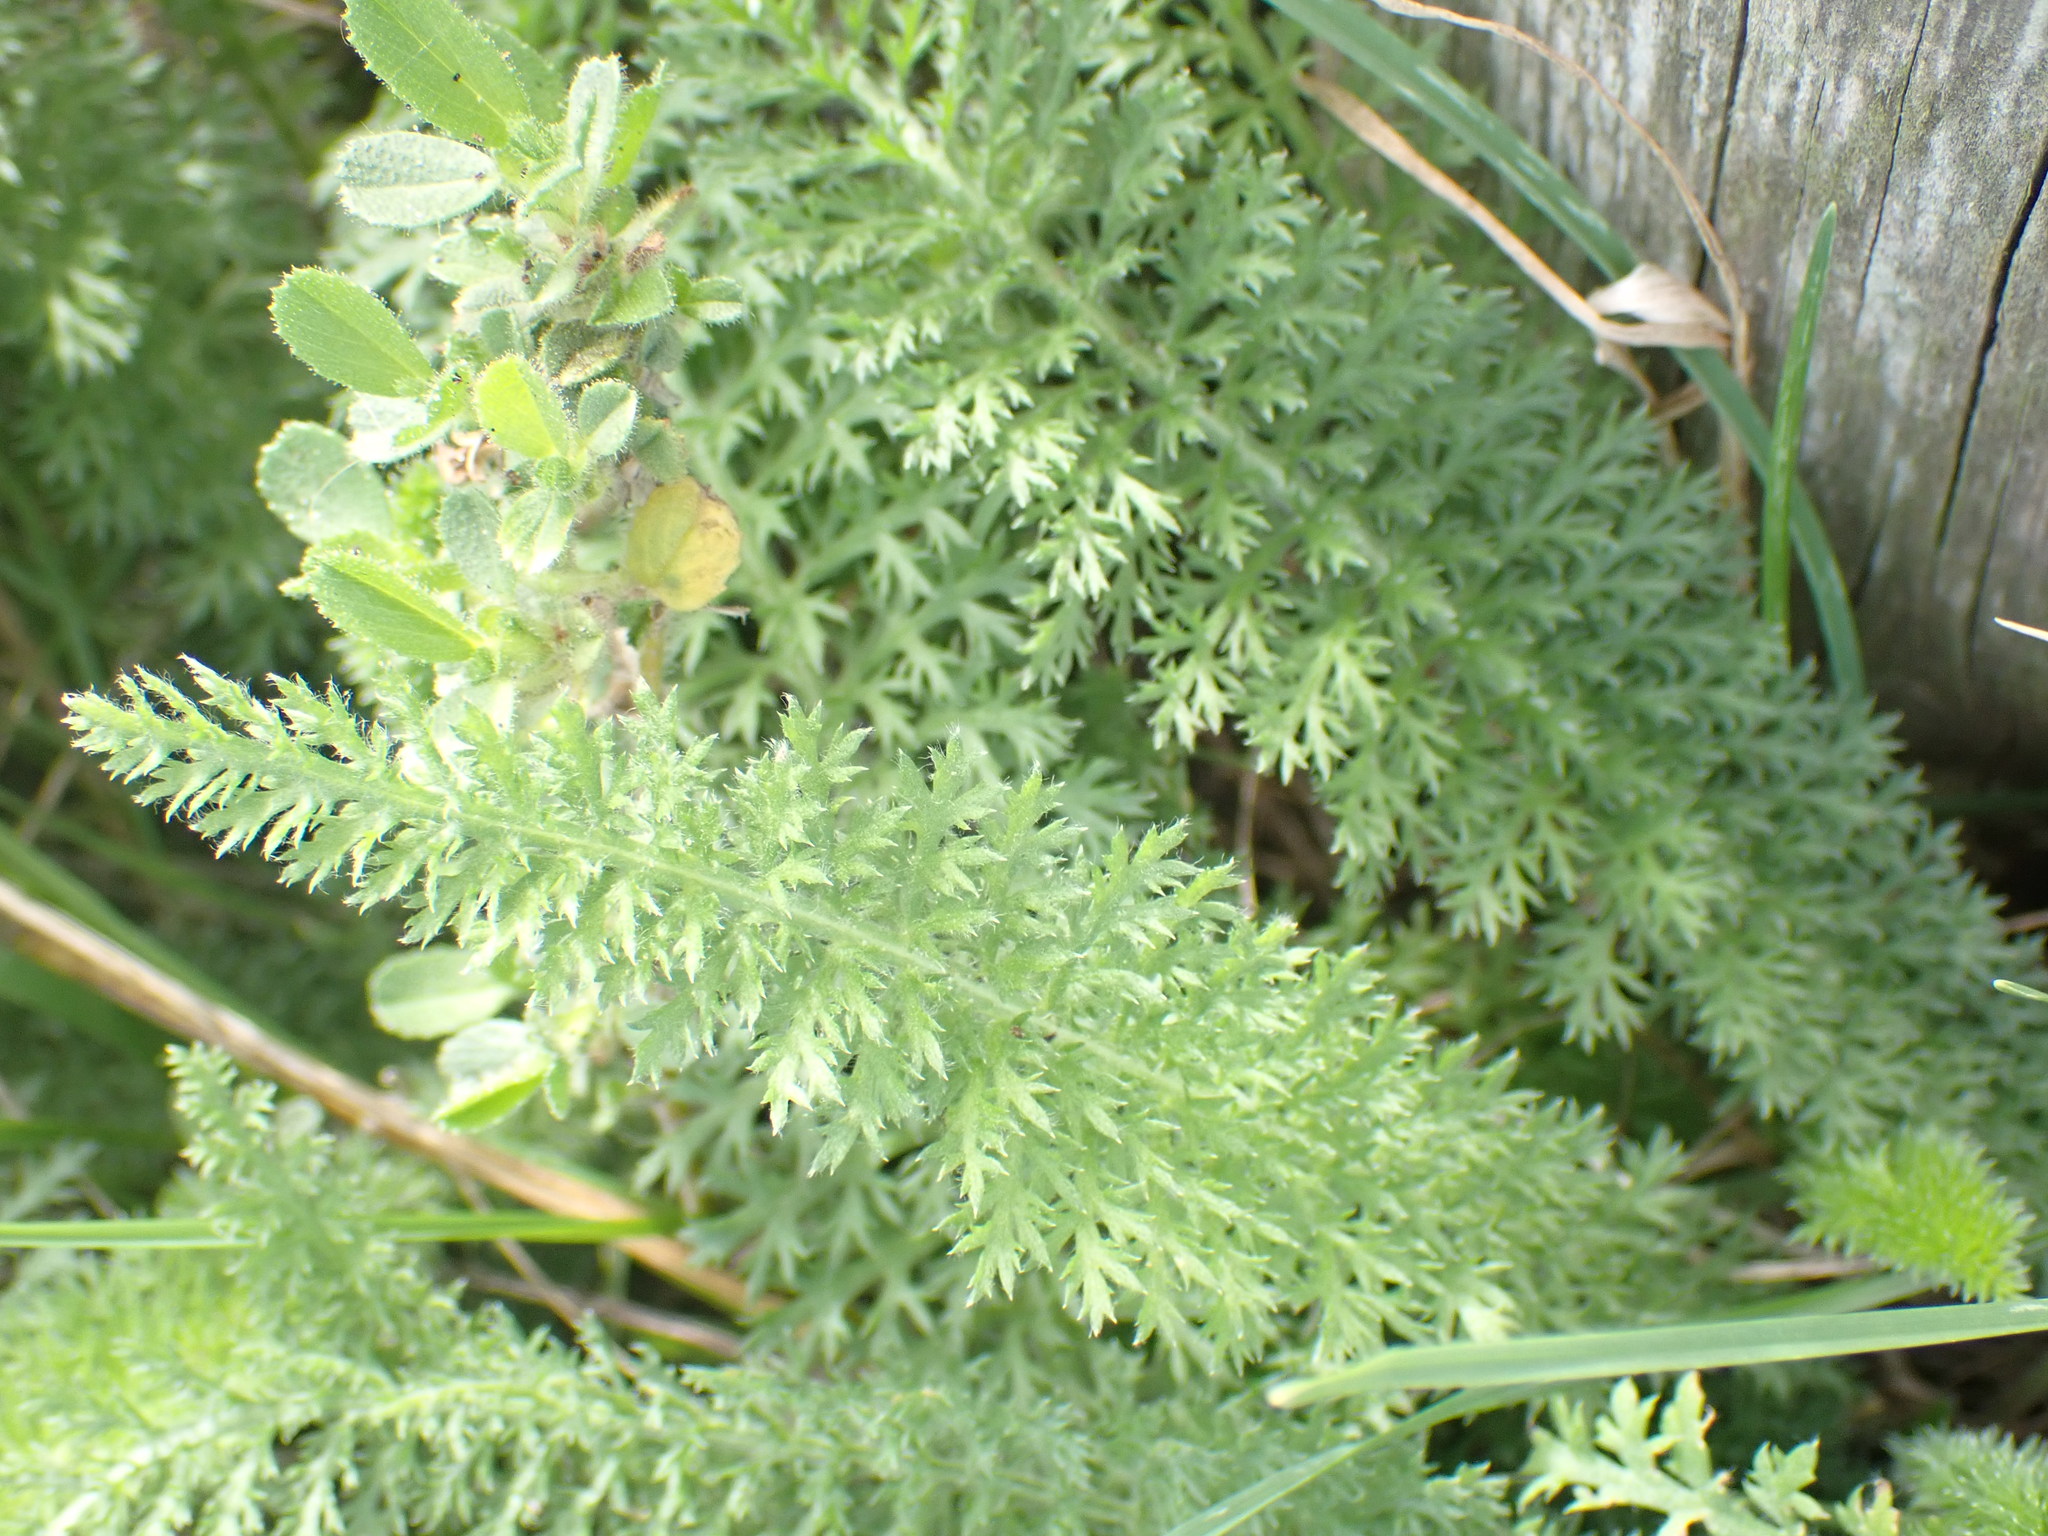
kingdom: Plantae
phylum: Tracheophyta
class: Magnoliopsida
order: Asterales
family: Asteraceae
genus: Achillea
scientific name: Achillea millefolium
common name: Yarrow
